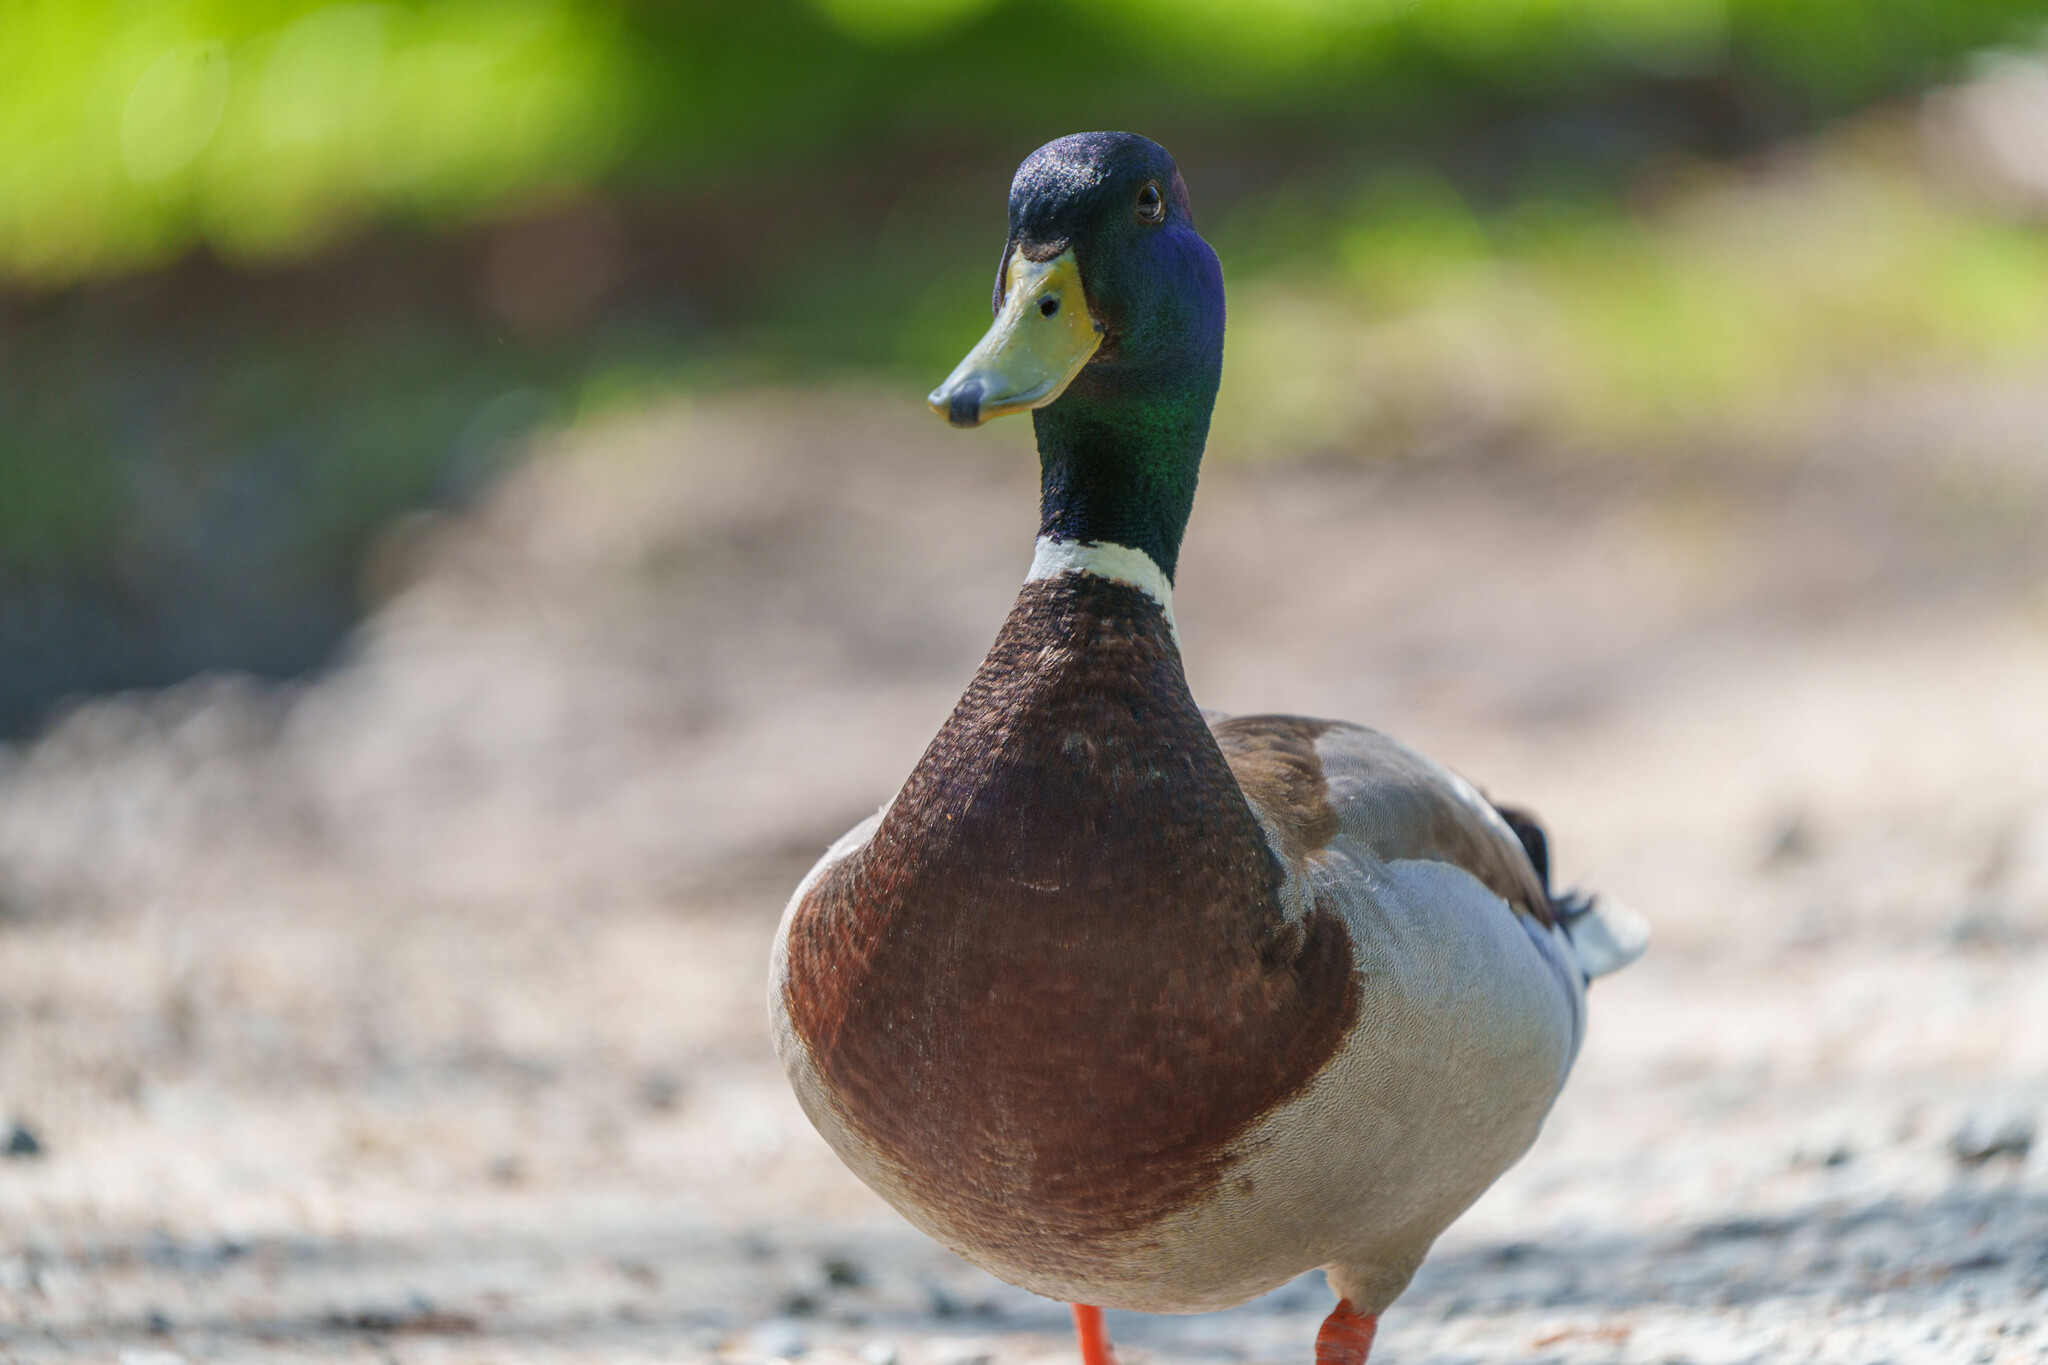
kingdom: Animalia
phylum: Chordata
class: Aves
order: Anseriformes
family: Anatidae
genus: Anas
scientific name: Anas platyrhynchos
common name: Mallard
